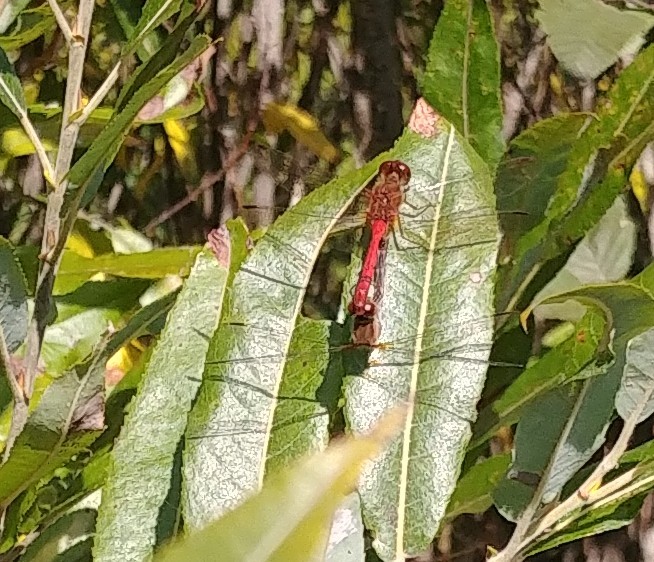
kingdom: Animalia
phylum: Arthropoda
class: Insecta
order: Odonata
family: Libellulidae
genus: Sympetrum
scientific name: Sympetrum vicinum
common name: Autumn meadowhawk
